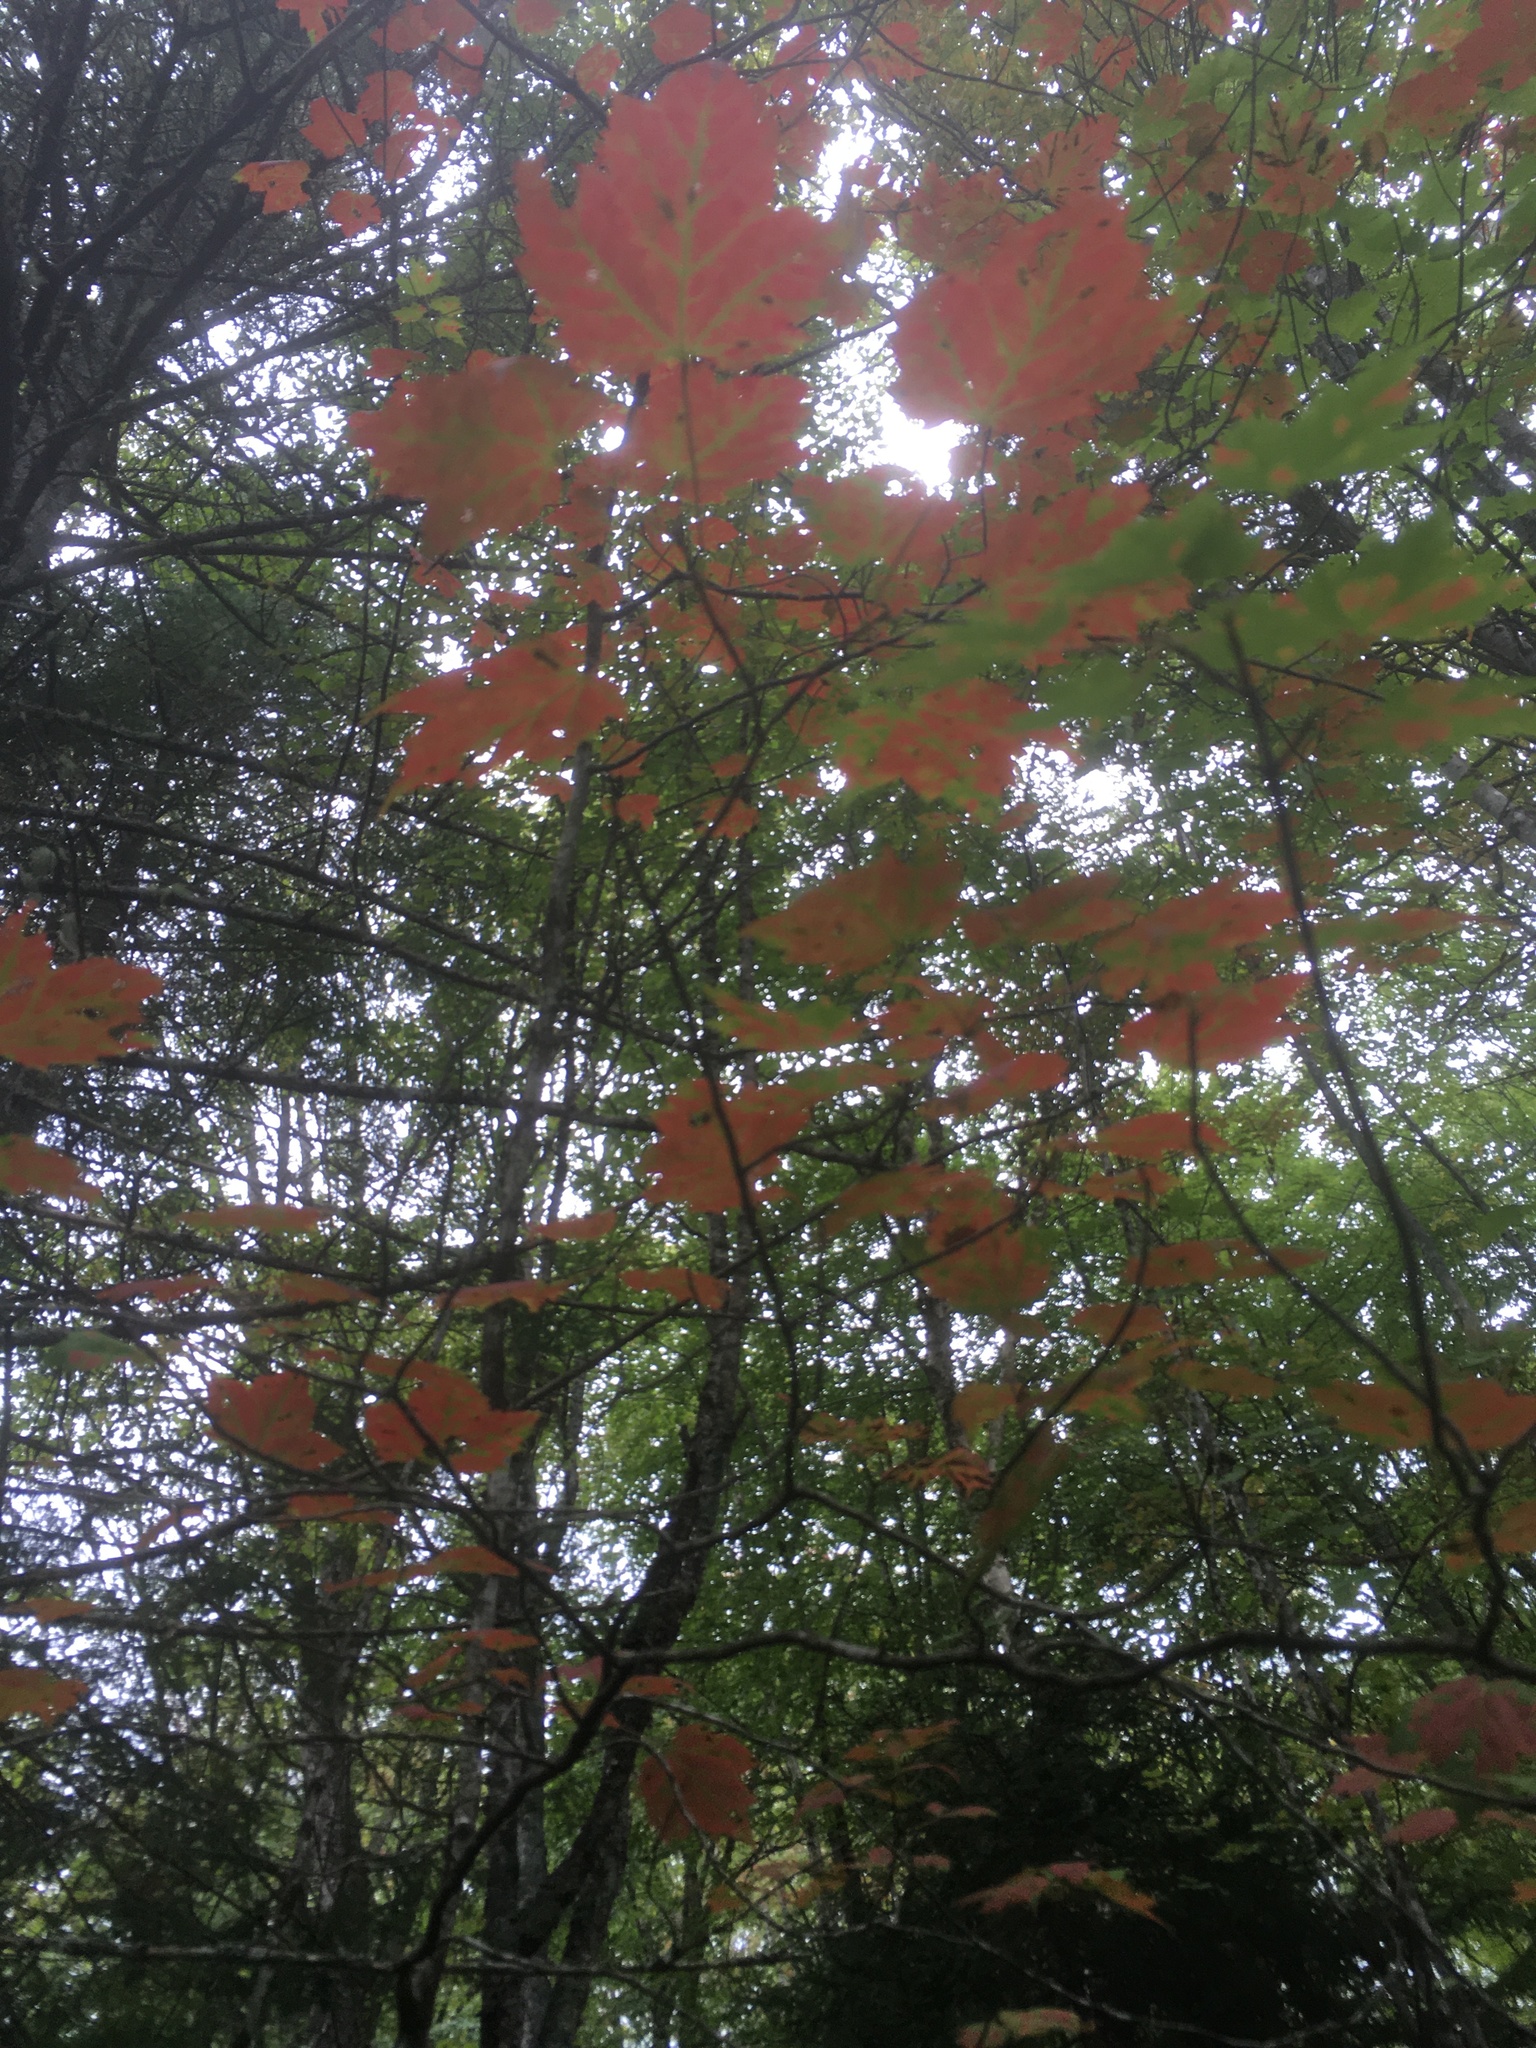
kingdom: Plantae
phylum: Tracheophyta
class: Magnoliopsida
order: Sapindales
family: Sapindaceae
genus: Acer
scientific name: Acer rubrum
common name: Red maple
